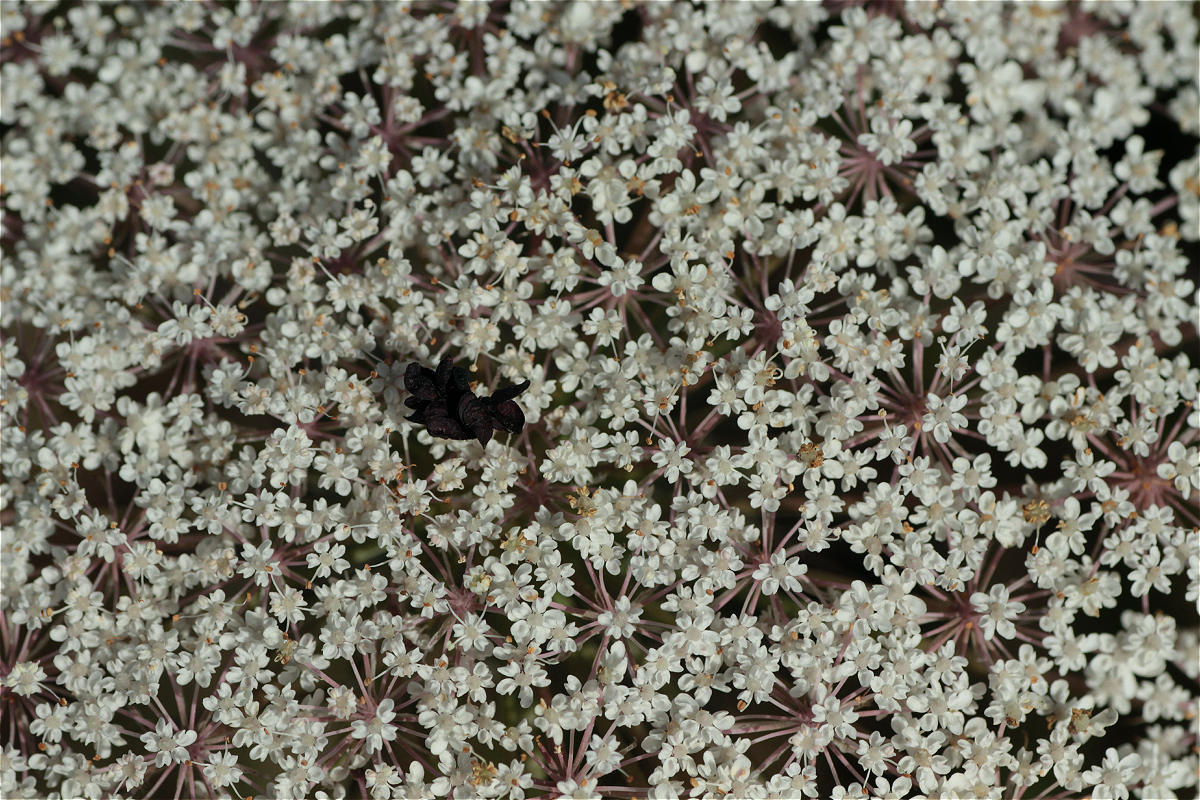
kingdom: Plantae
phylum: Tracheophyta
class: Magnoliopsida
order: Apiales
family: Apiaceae
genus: Daucus
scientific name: Daucus carota
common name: Wild carrot
